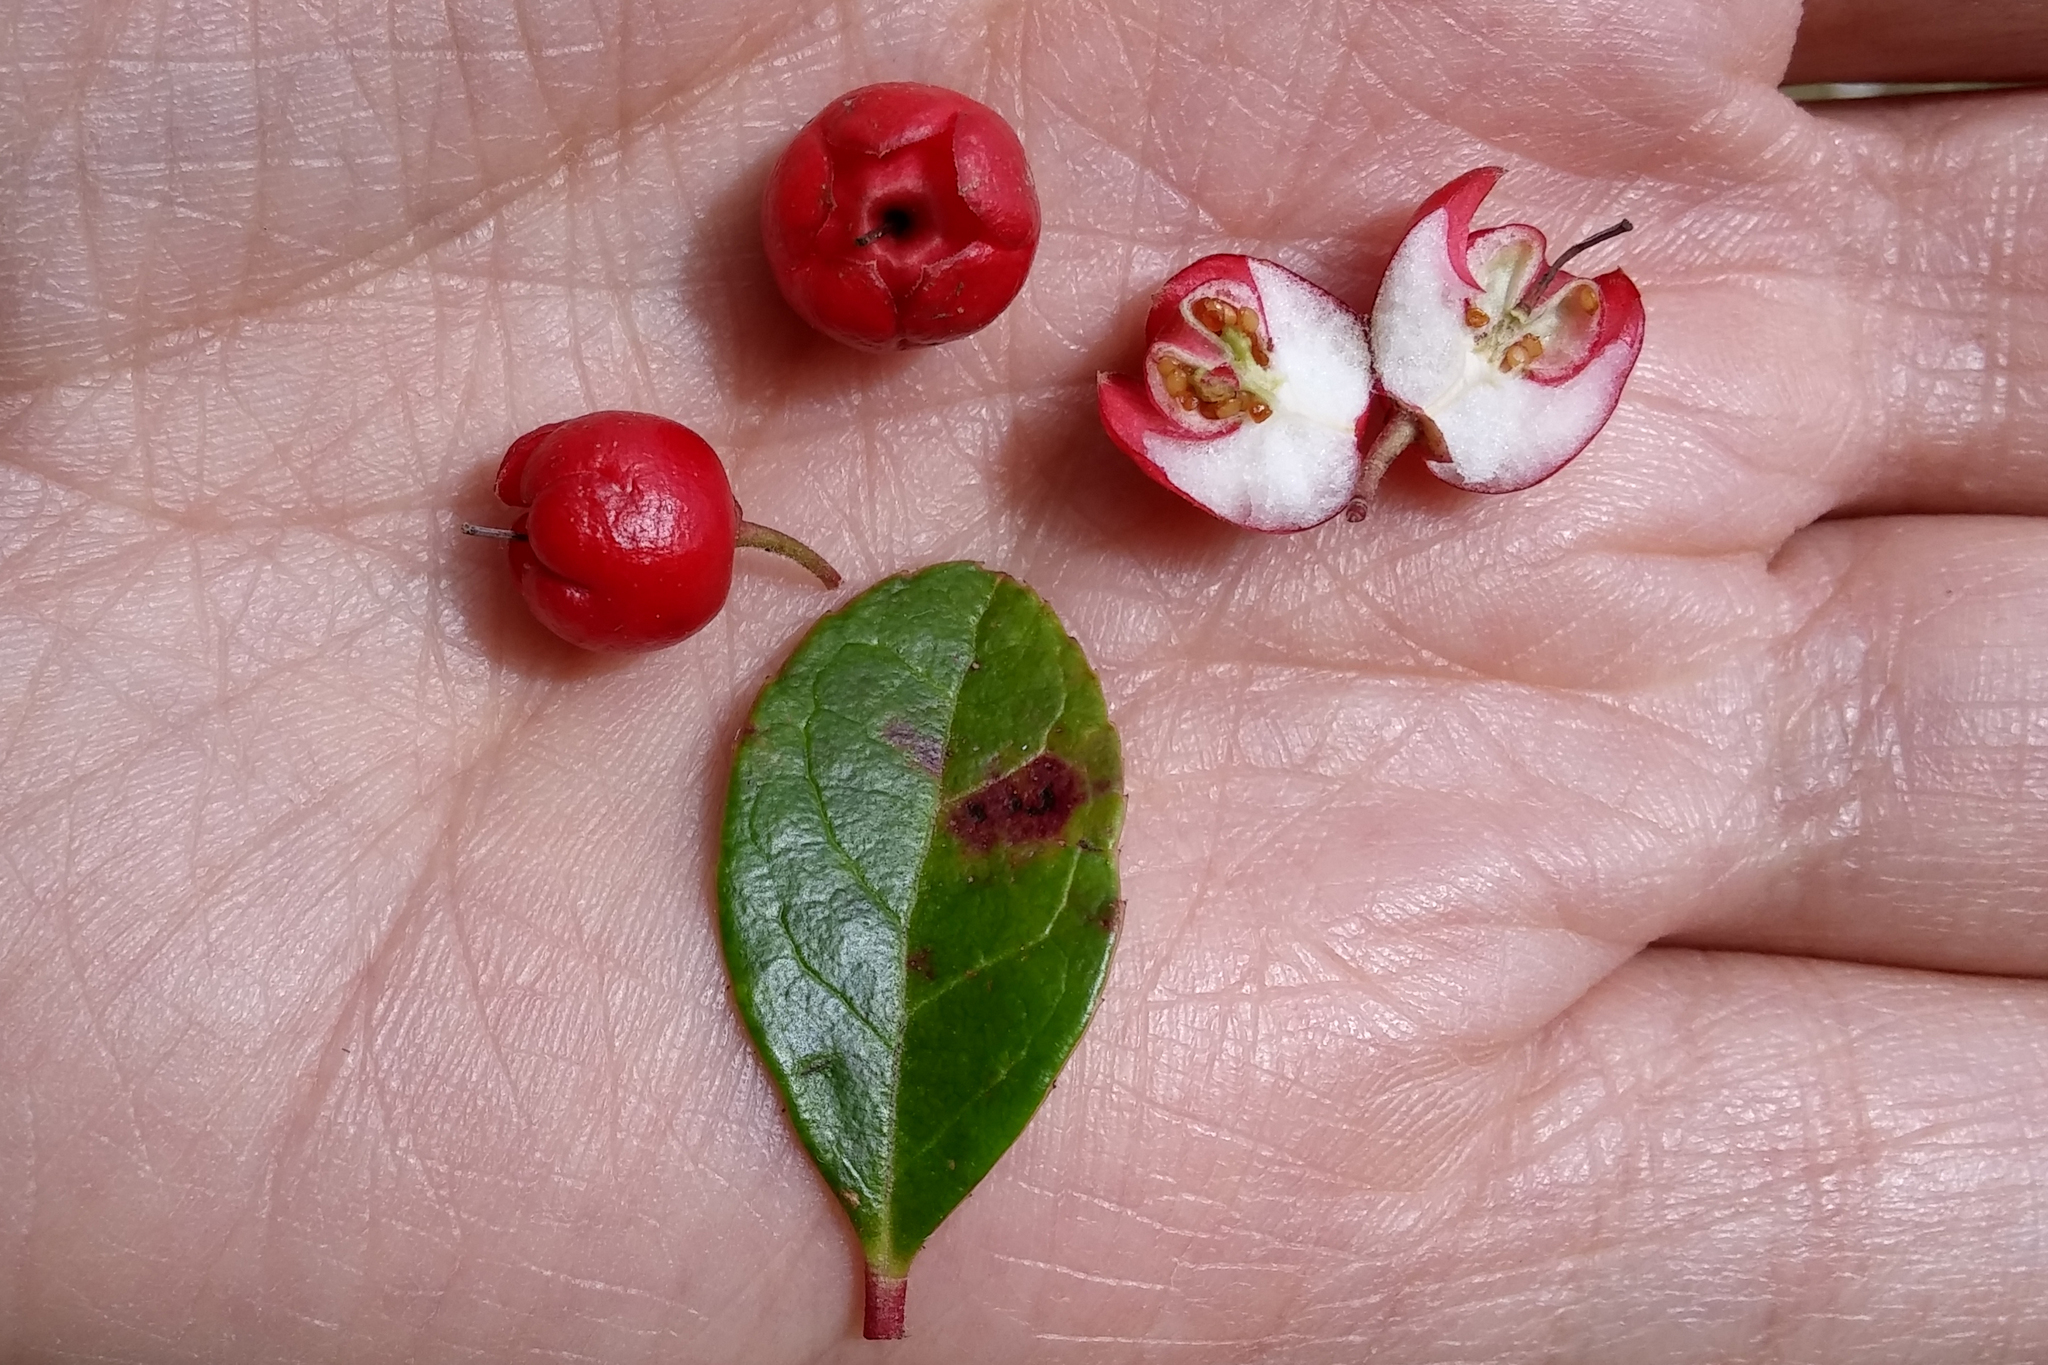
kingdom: Plantae
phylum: Tracheophyta
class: Magnoliopsida
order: Ericales
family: Ericaceae
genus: Gaultheria
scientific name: Gaultheria procumbens
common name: Checkerberry
